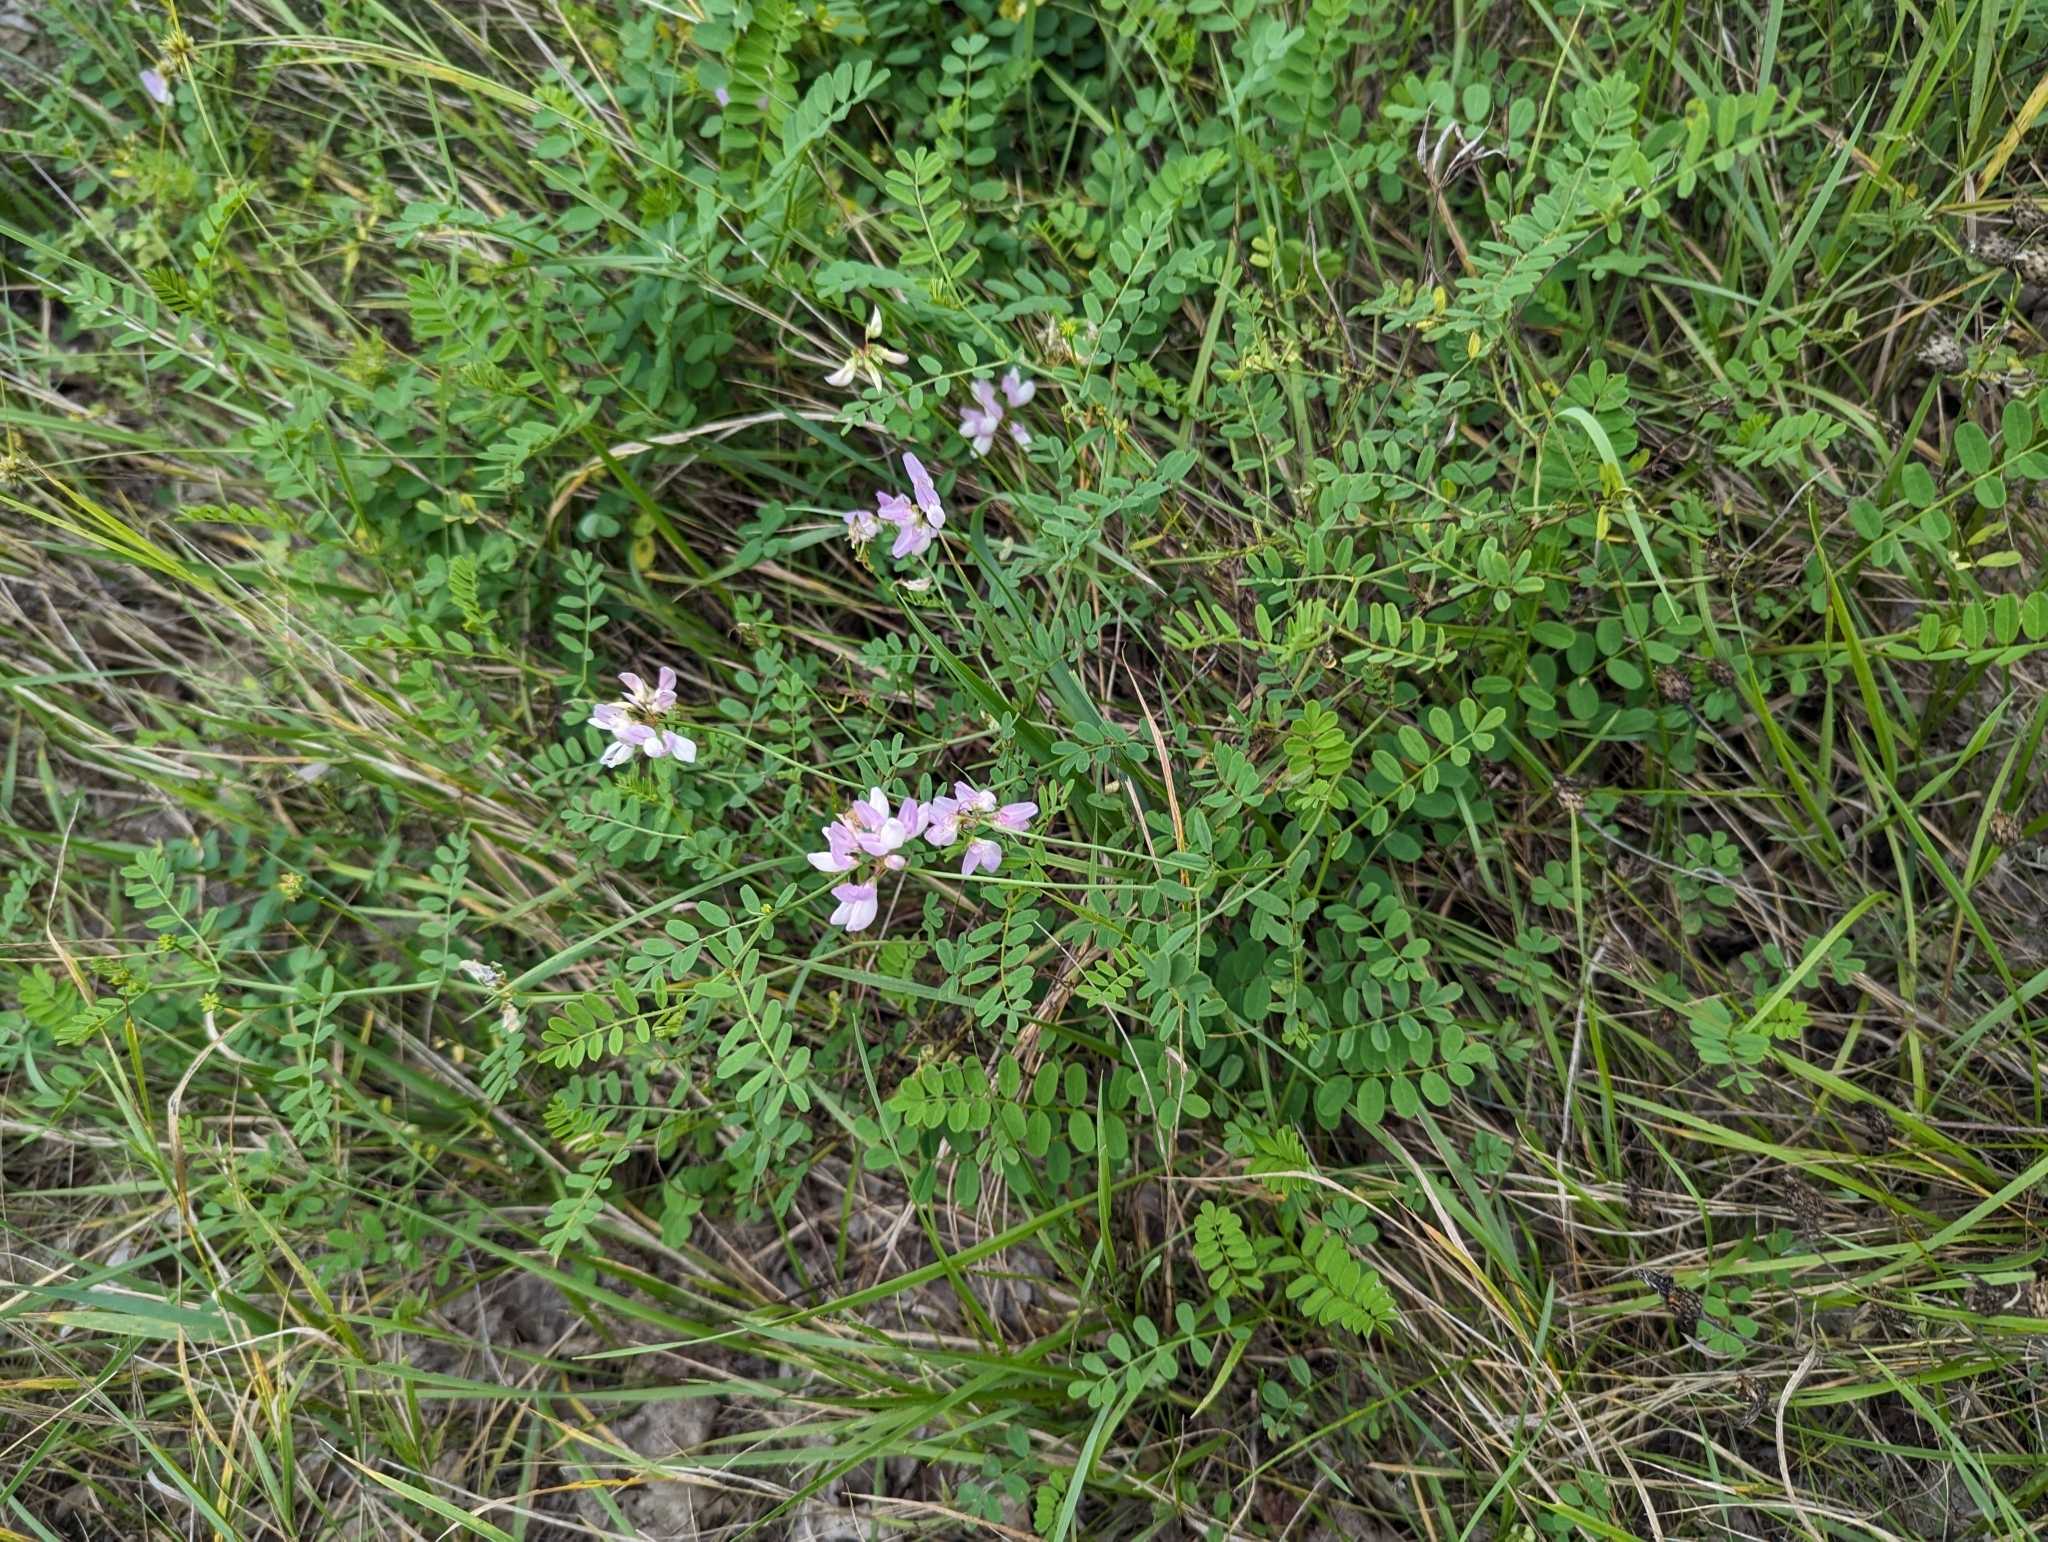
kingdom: Plantae
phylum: Tracheophyta
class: Magnoliopsida
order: Fabales
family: Fabaceae
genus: Coronilla
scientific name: Coronilla varia
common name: Crownvetch
